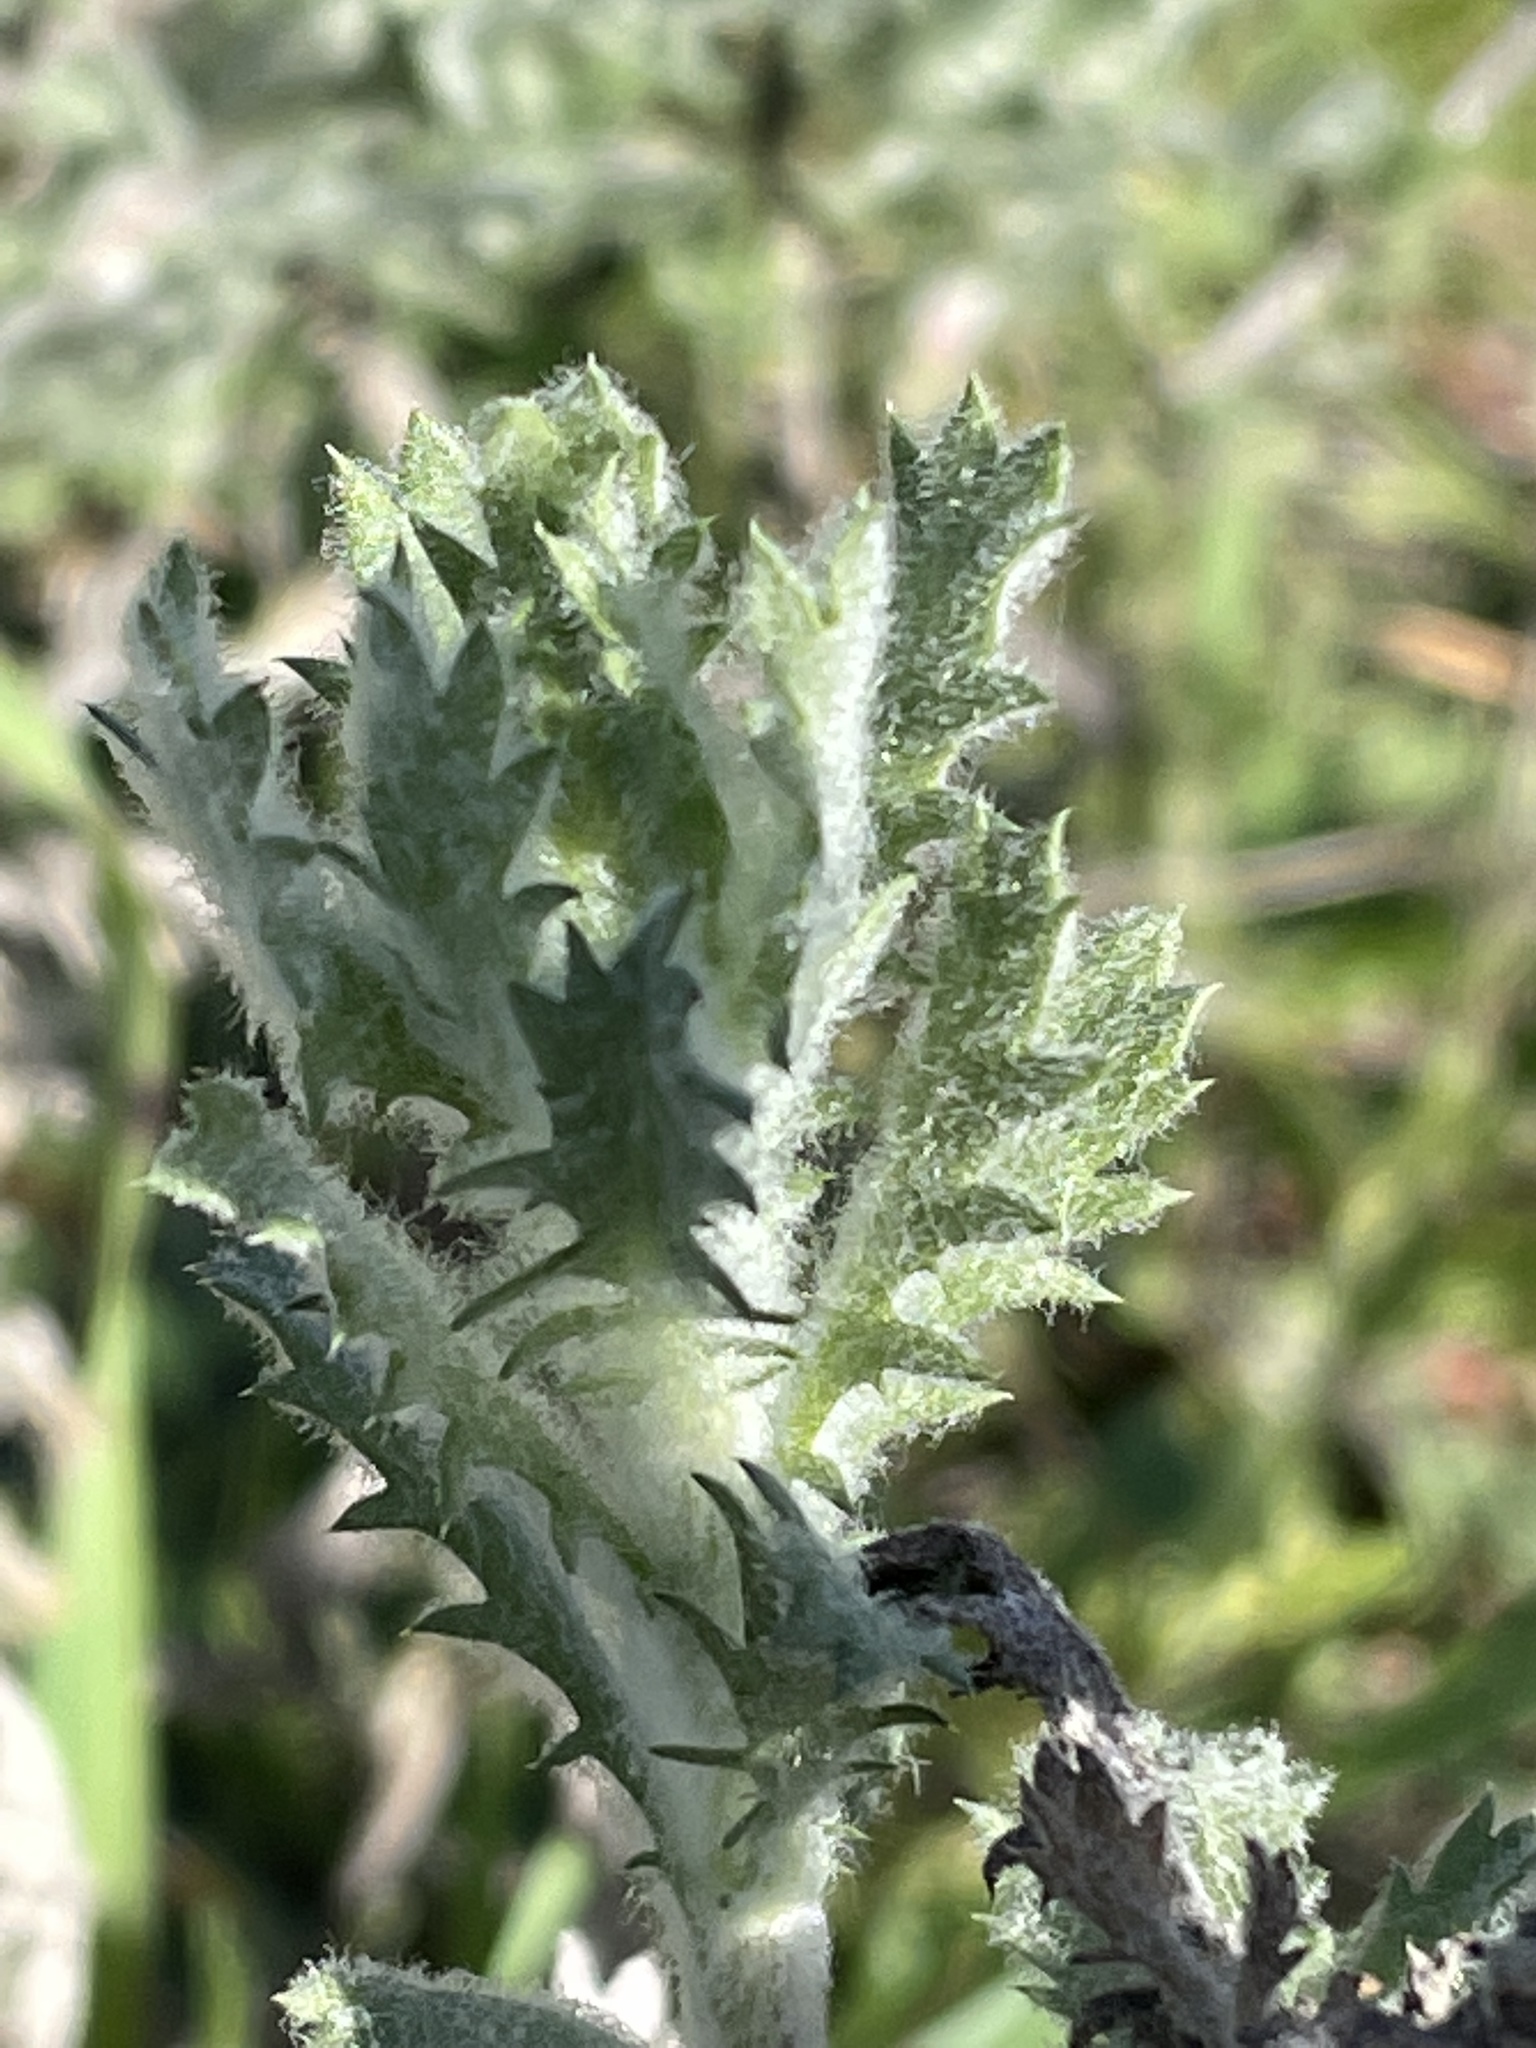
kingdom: Plantae
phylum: Tracheophyta
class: Magnoliopsida
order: Asterales
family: Asteraceae
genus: Isocoma
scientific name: Isocoma menziesii
